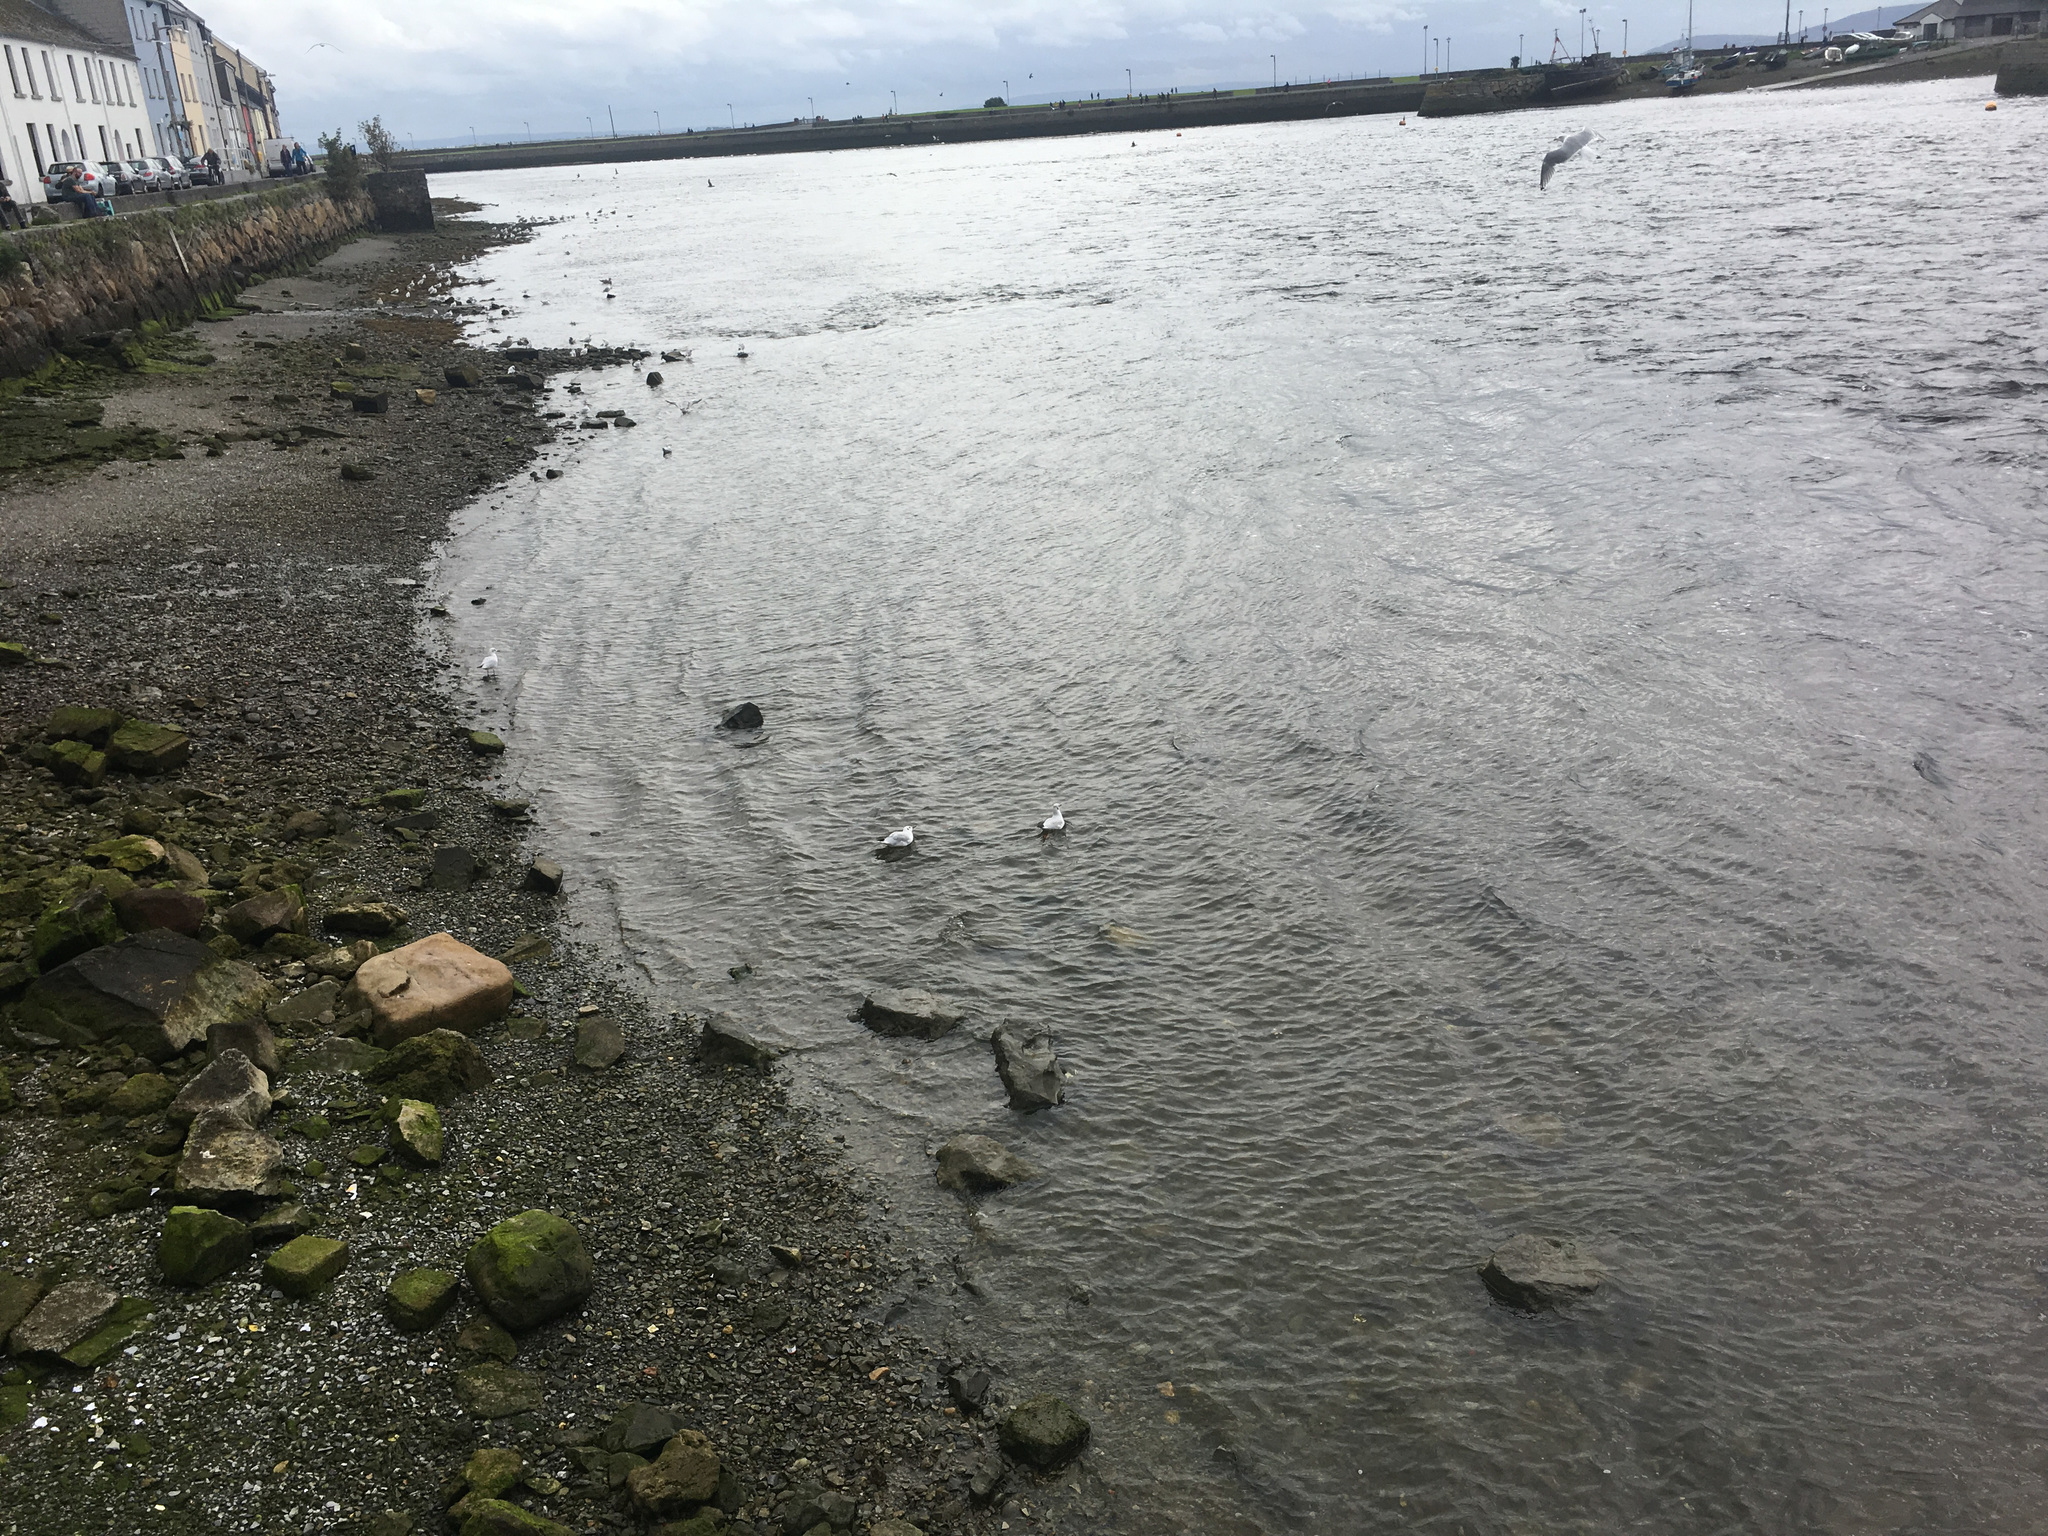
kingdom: Animalia
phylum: Chordata
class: Aves
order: Charadriiformes
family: Laridae
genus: Chroicocephalus
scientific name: Chroicocephalus ridibundus
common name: Black-headed gull
